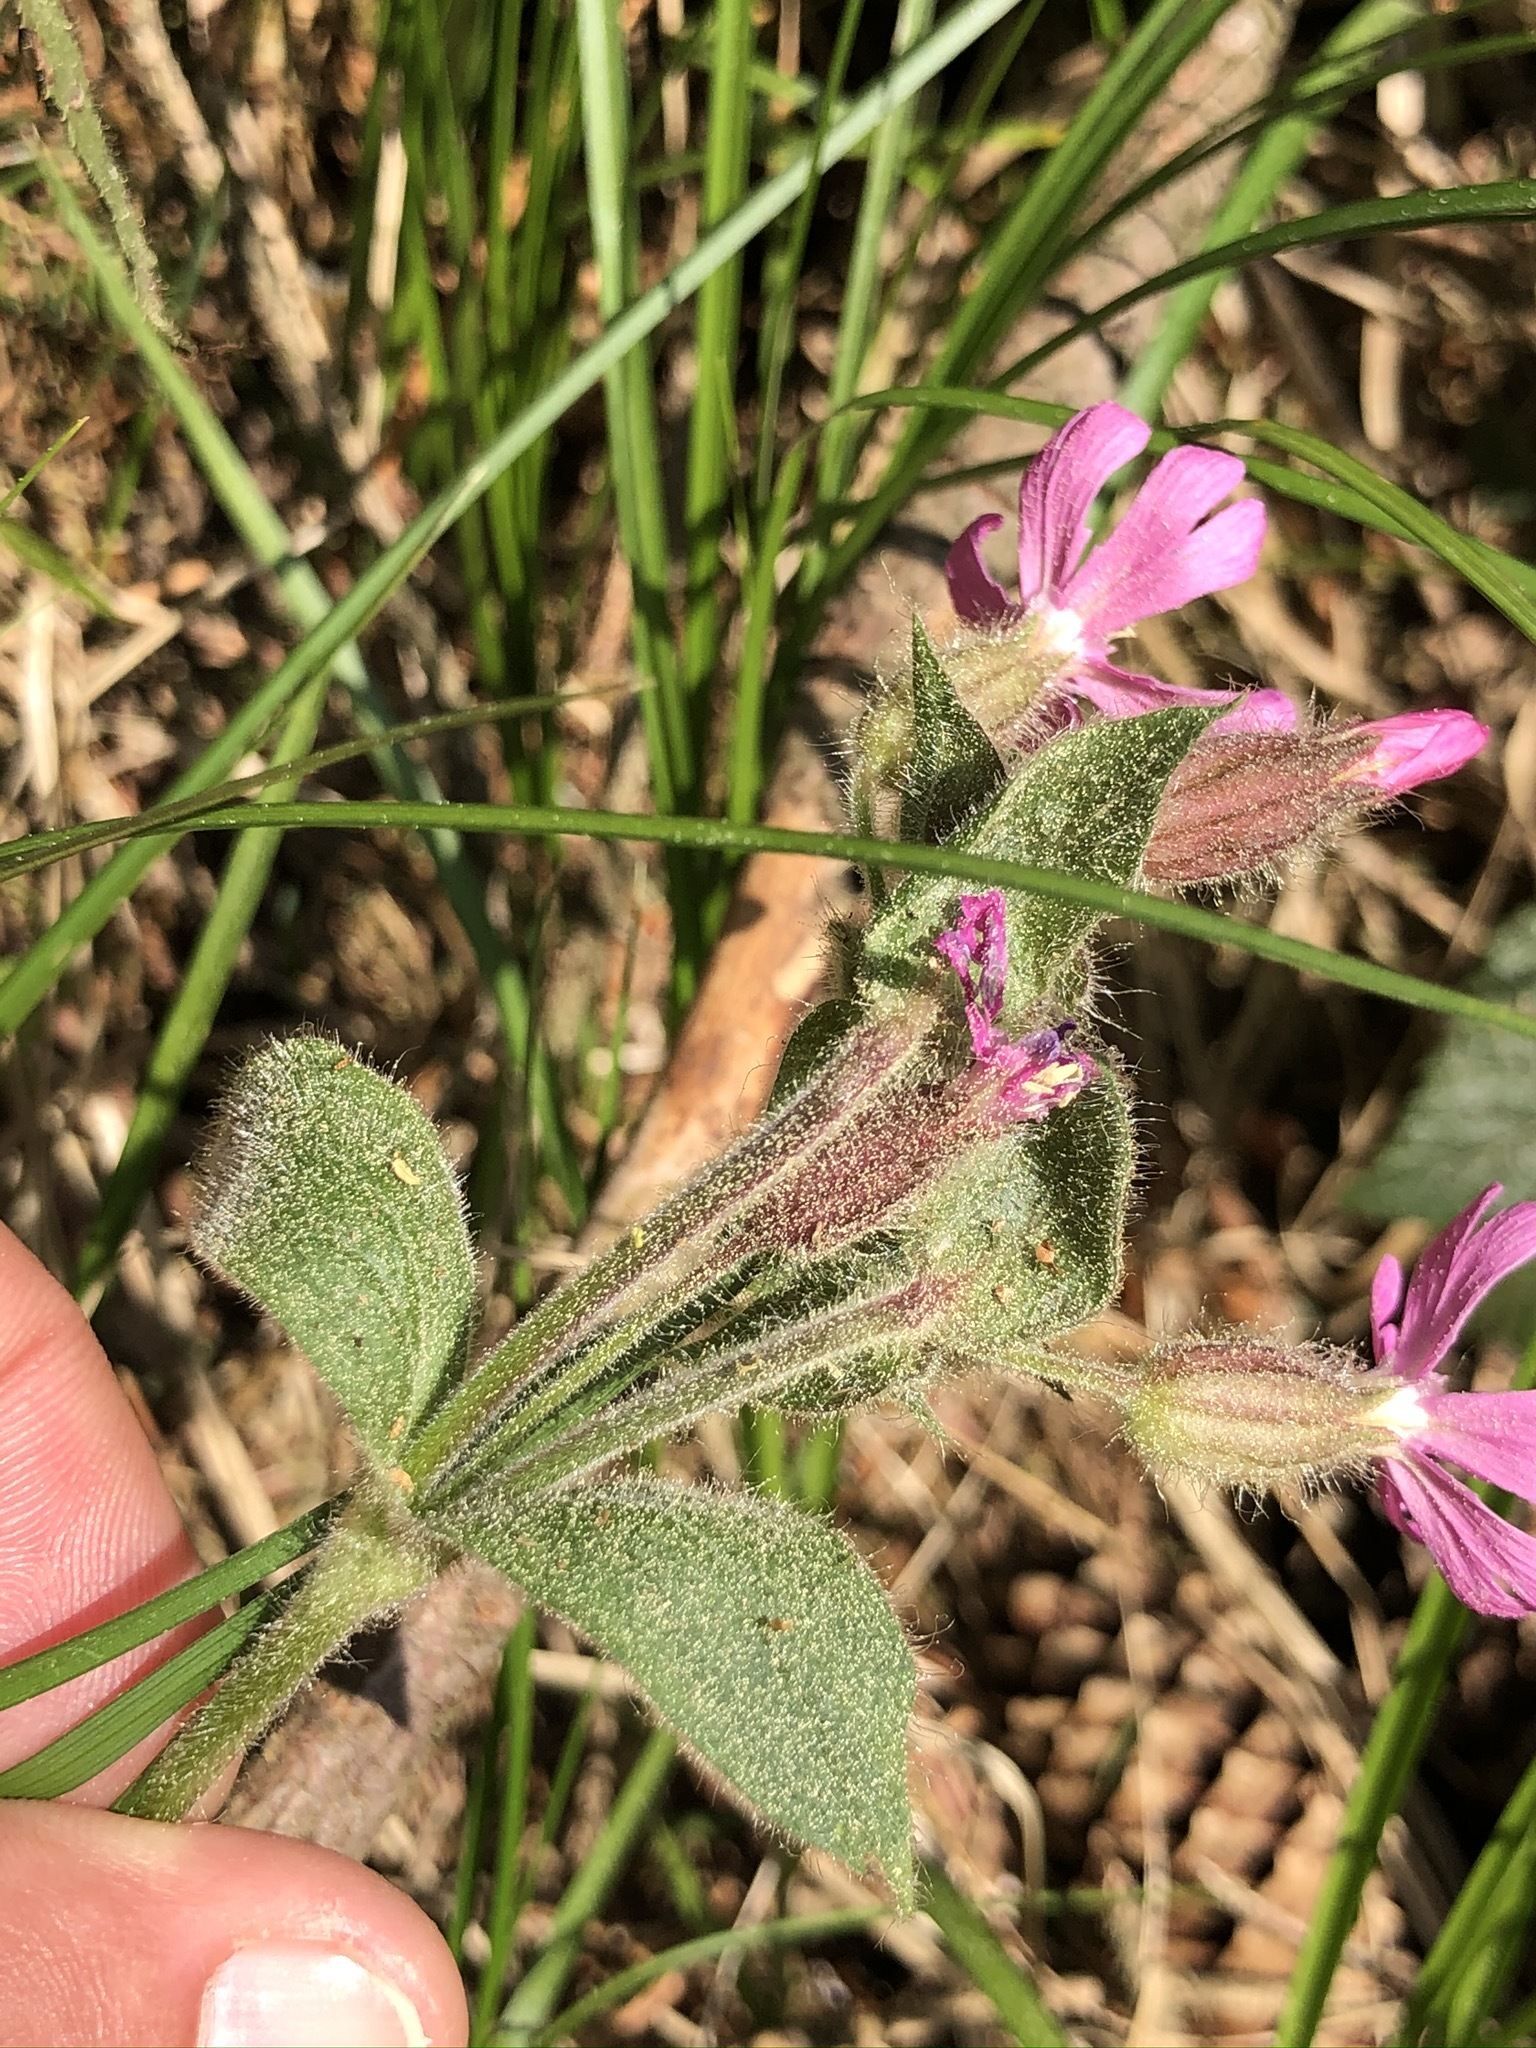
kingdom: Plantae
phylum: Tracheophyta
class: Magnoliopsida
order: Caryophyllales
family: Caryophyllaceae
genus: Silene
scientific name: Silene dioica
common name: Red campion
